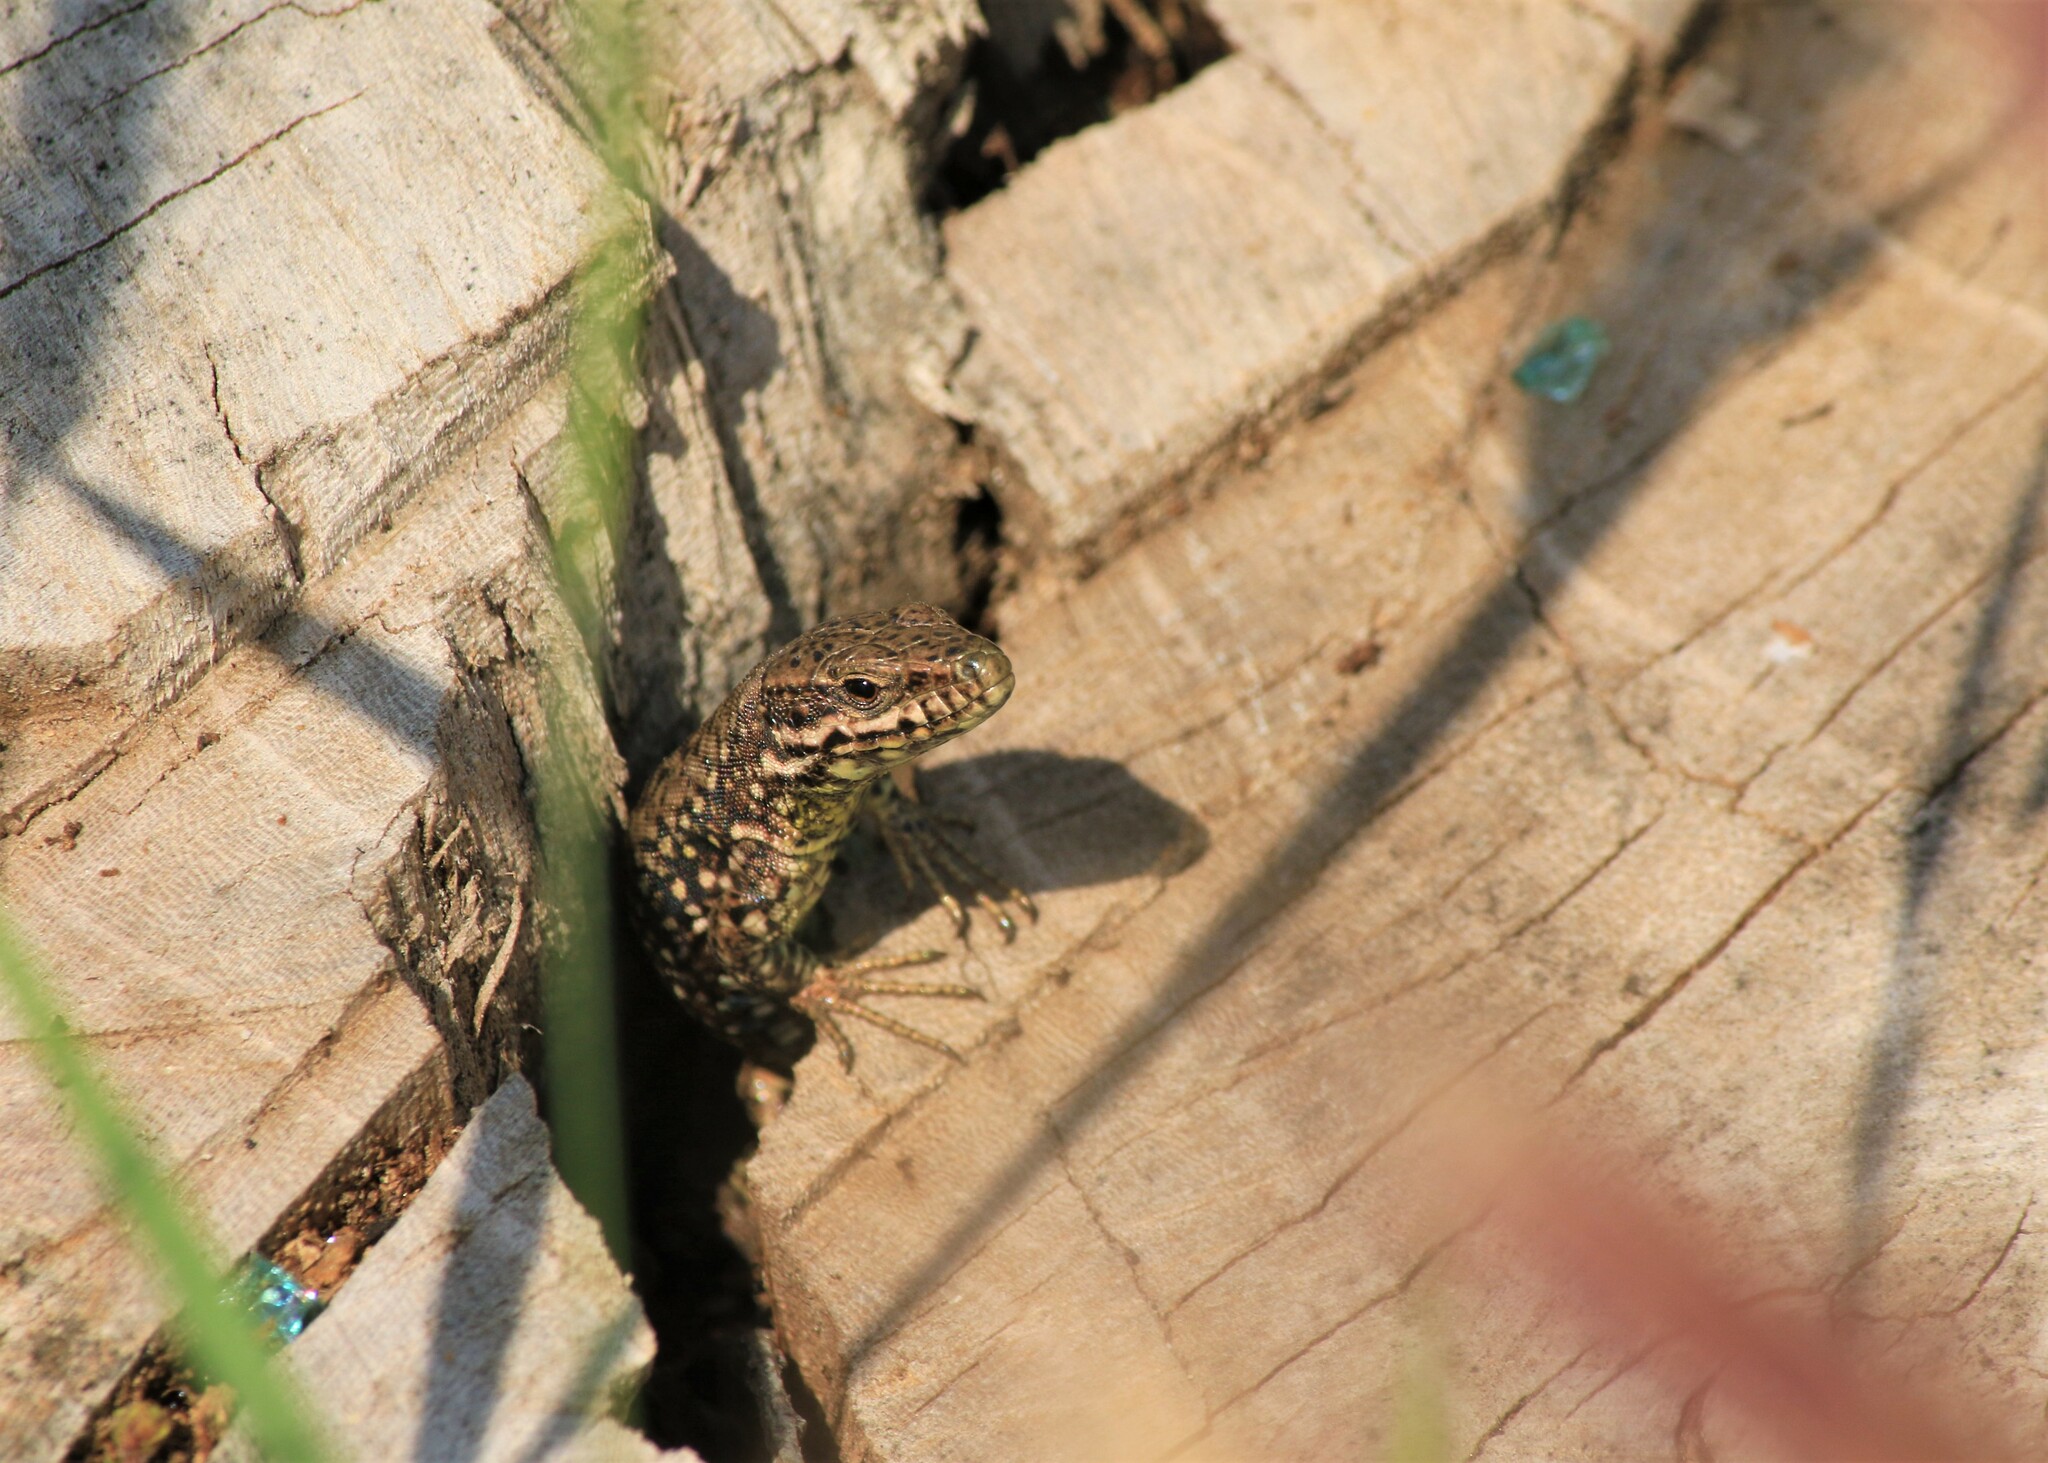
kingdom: Animalia
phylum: Chordata
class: Squamata
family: Lacertidae
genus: Podarcis
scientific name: Podarcis muralis
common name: Common wall lizard
